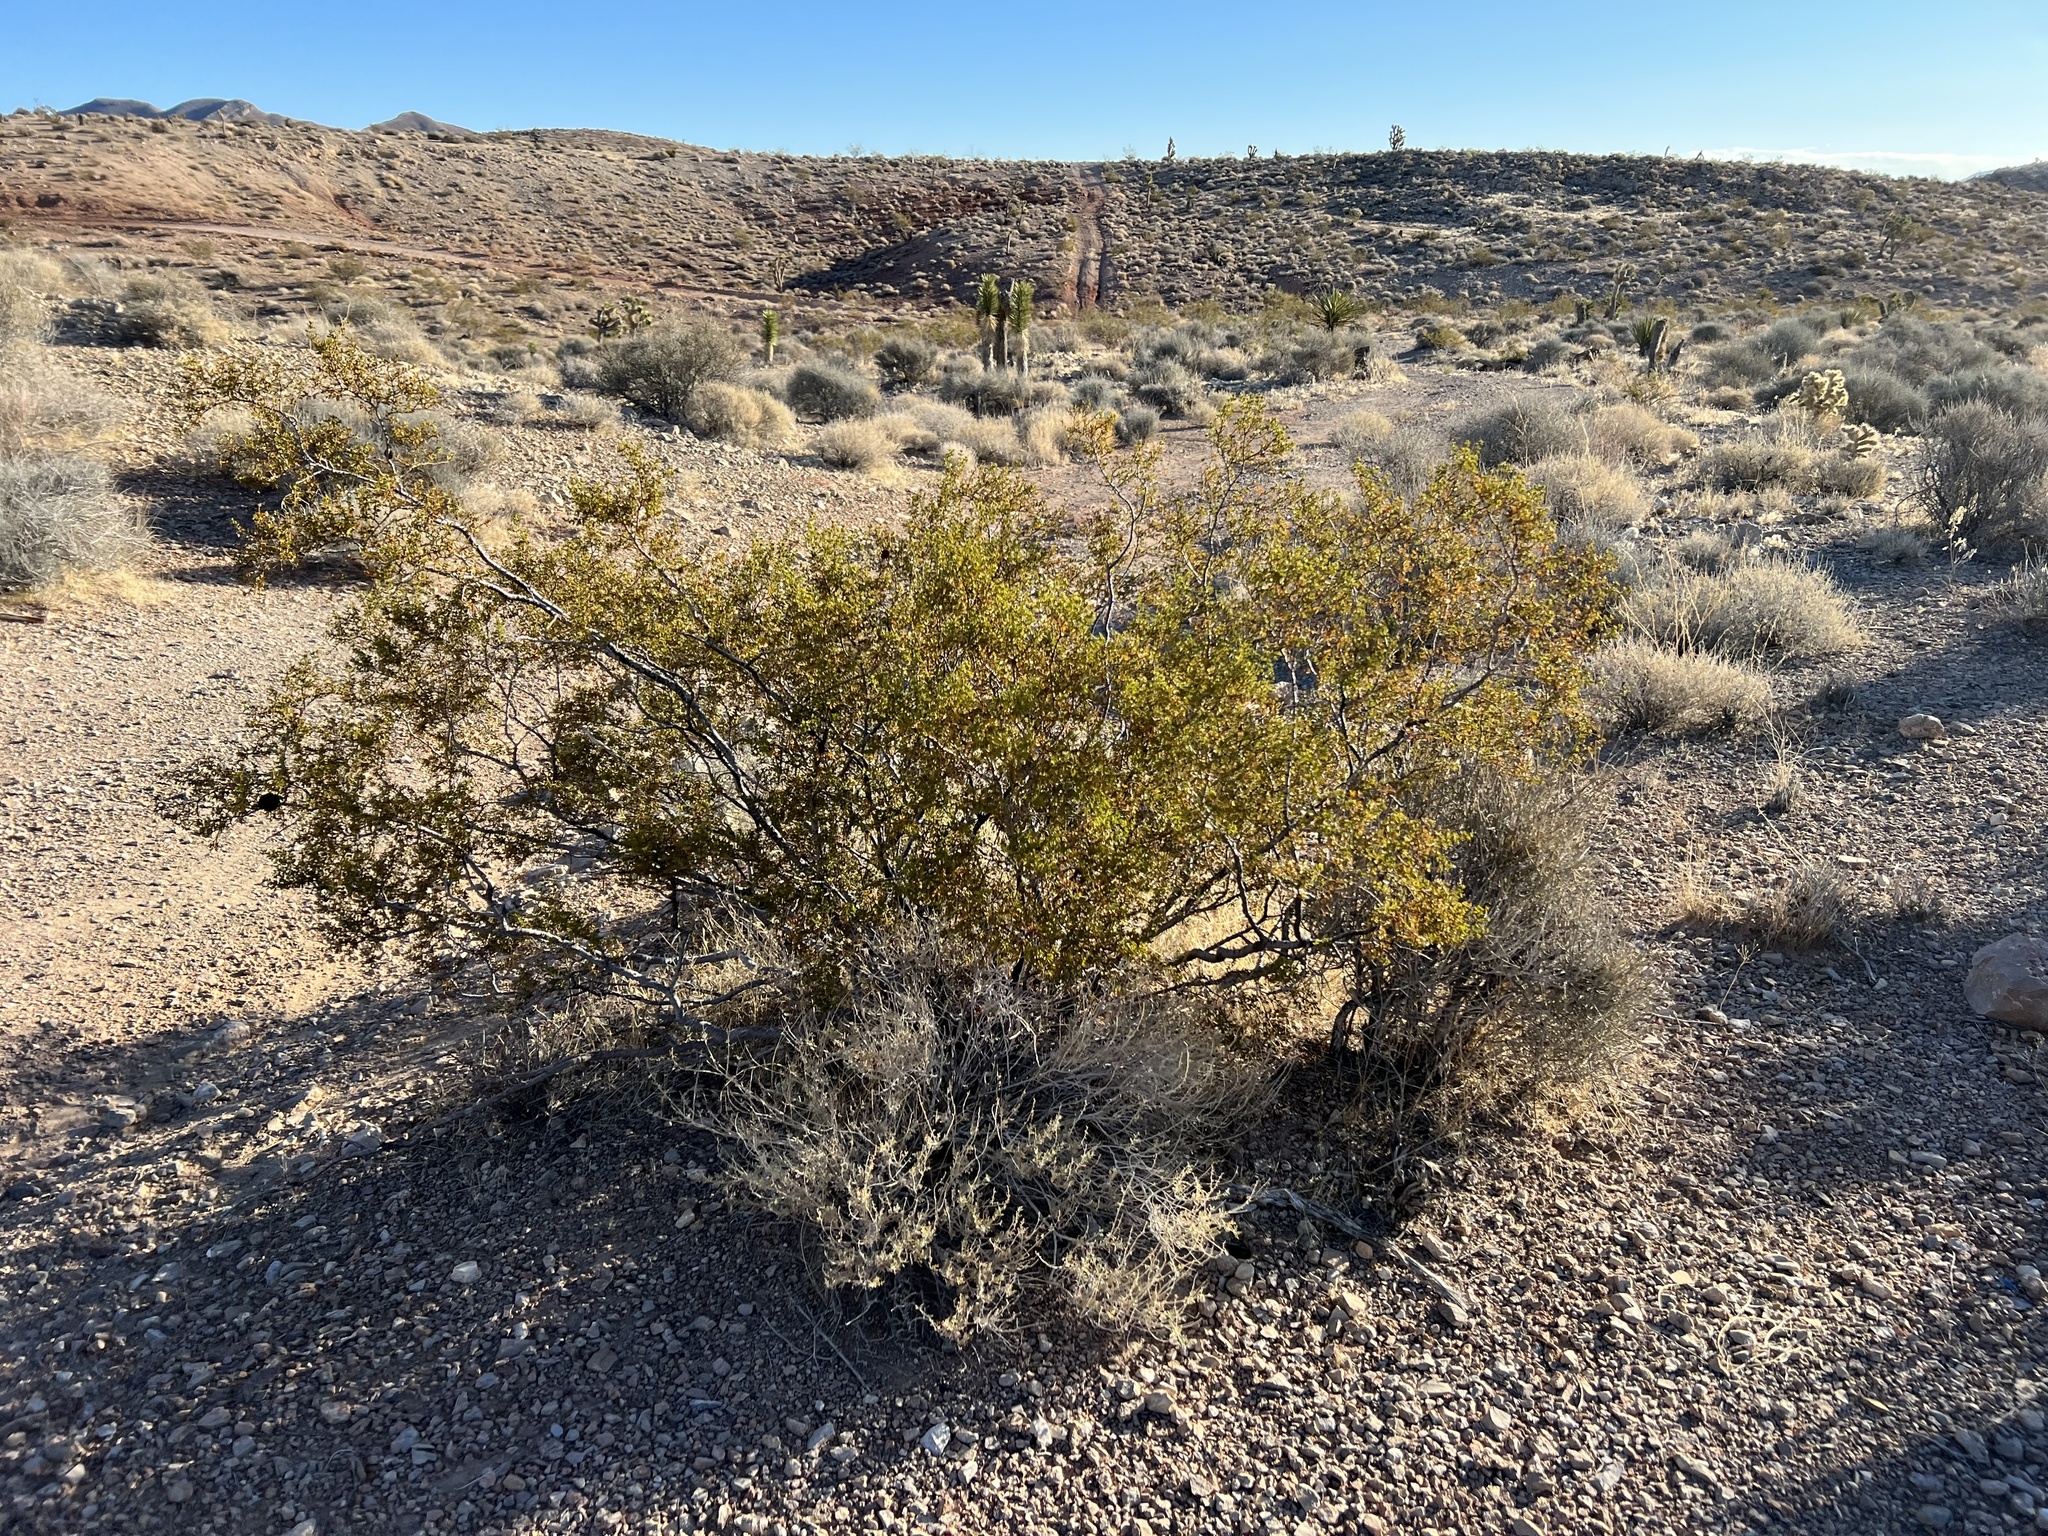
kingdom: Plantae
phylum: Tracheophyta
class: Magnoliopsida
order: Zygophyllales
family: Zygophyllaceae
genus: Larrea
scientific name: Larrea tridentata
